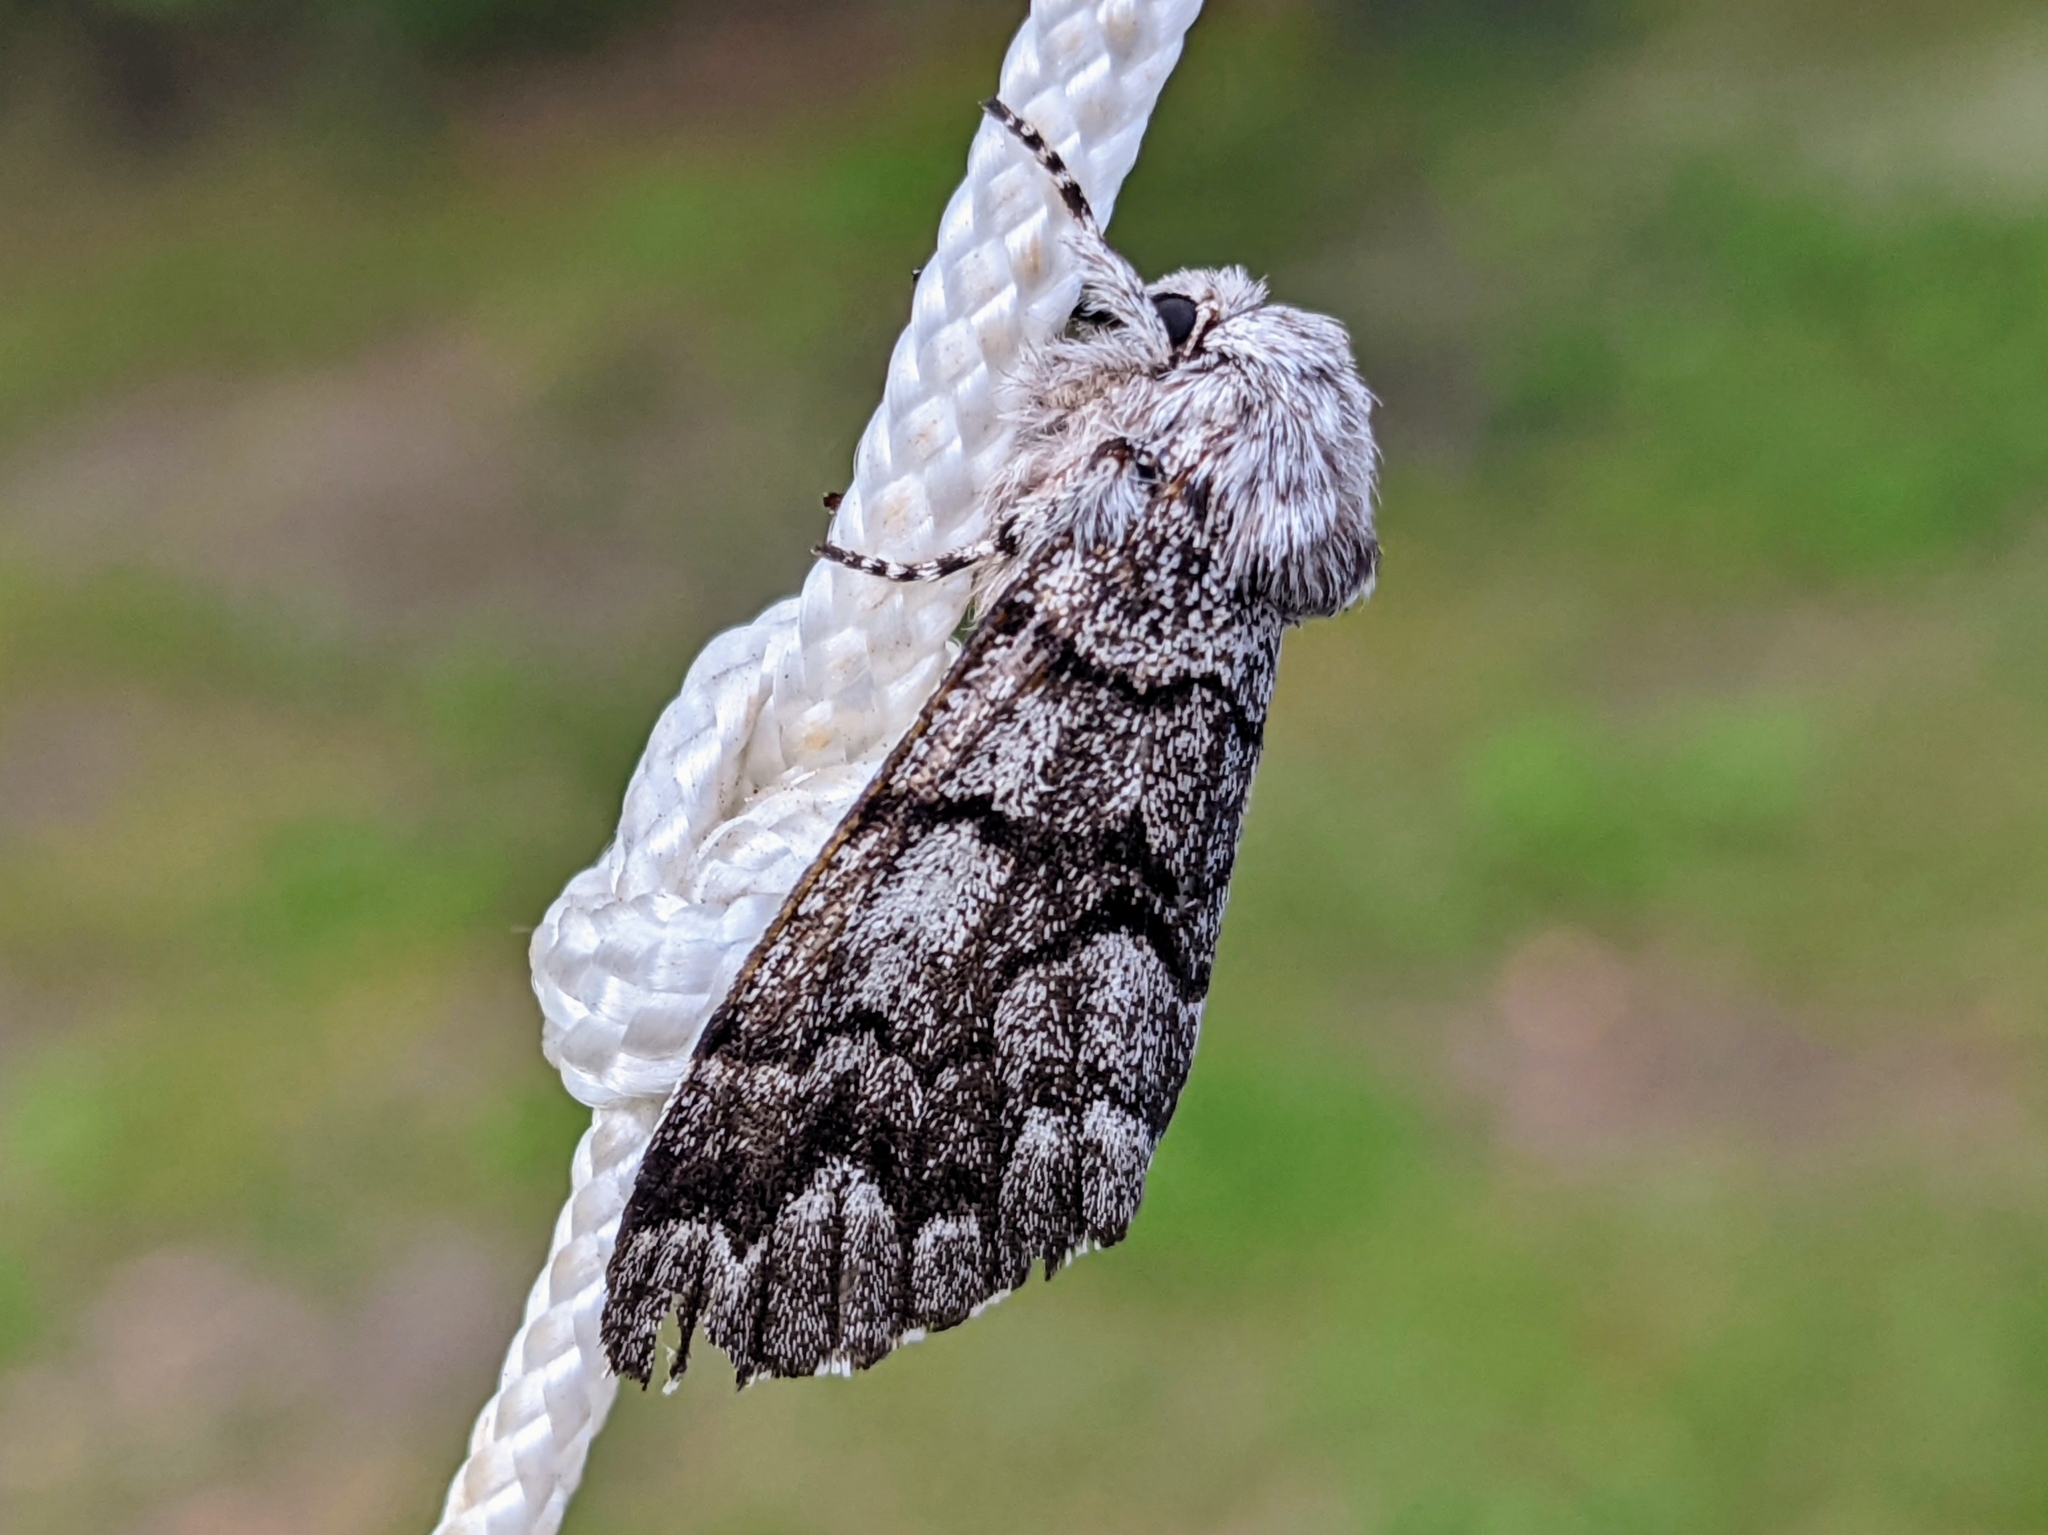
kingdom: Animalia
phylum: Arthropoda
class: Insecta
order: Lepidoptera
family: Noctuidae
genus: Panthea
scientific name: Panthea furcilla
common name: Eastern panthea moth
